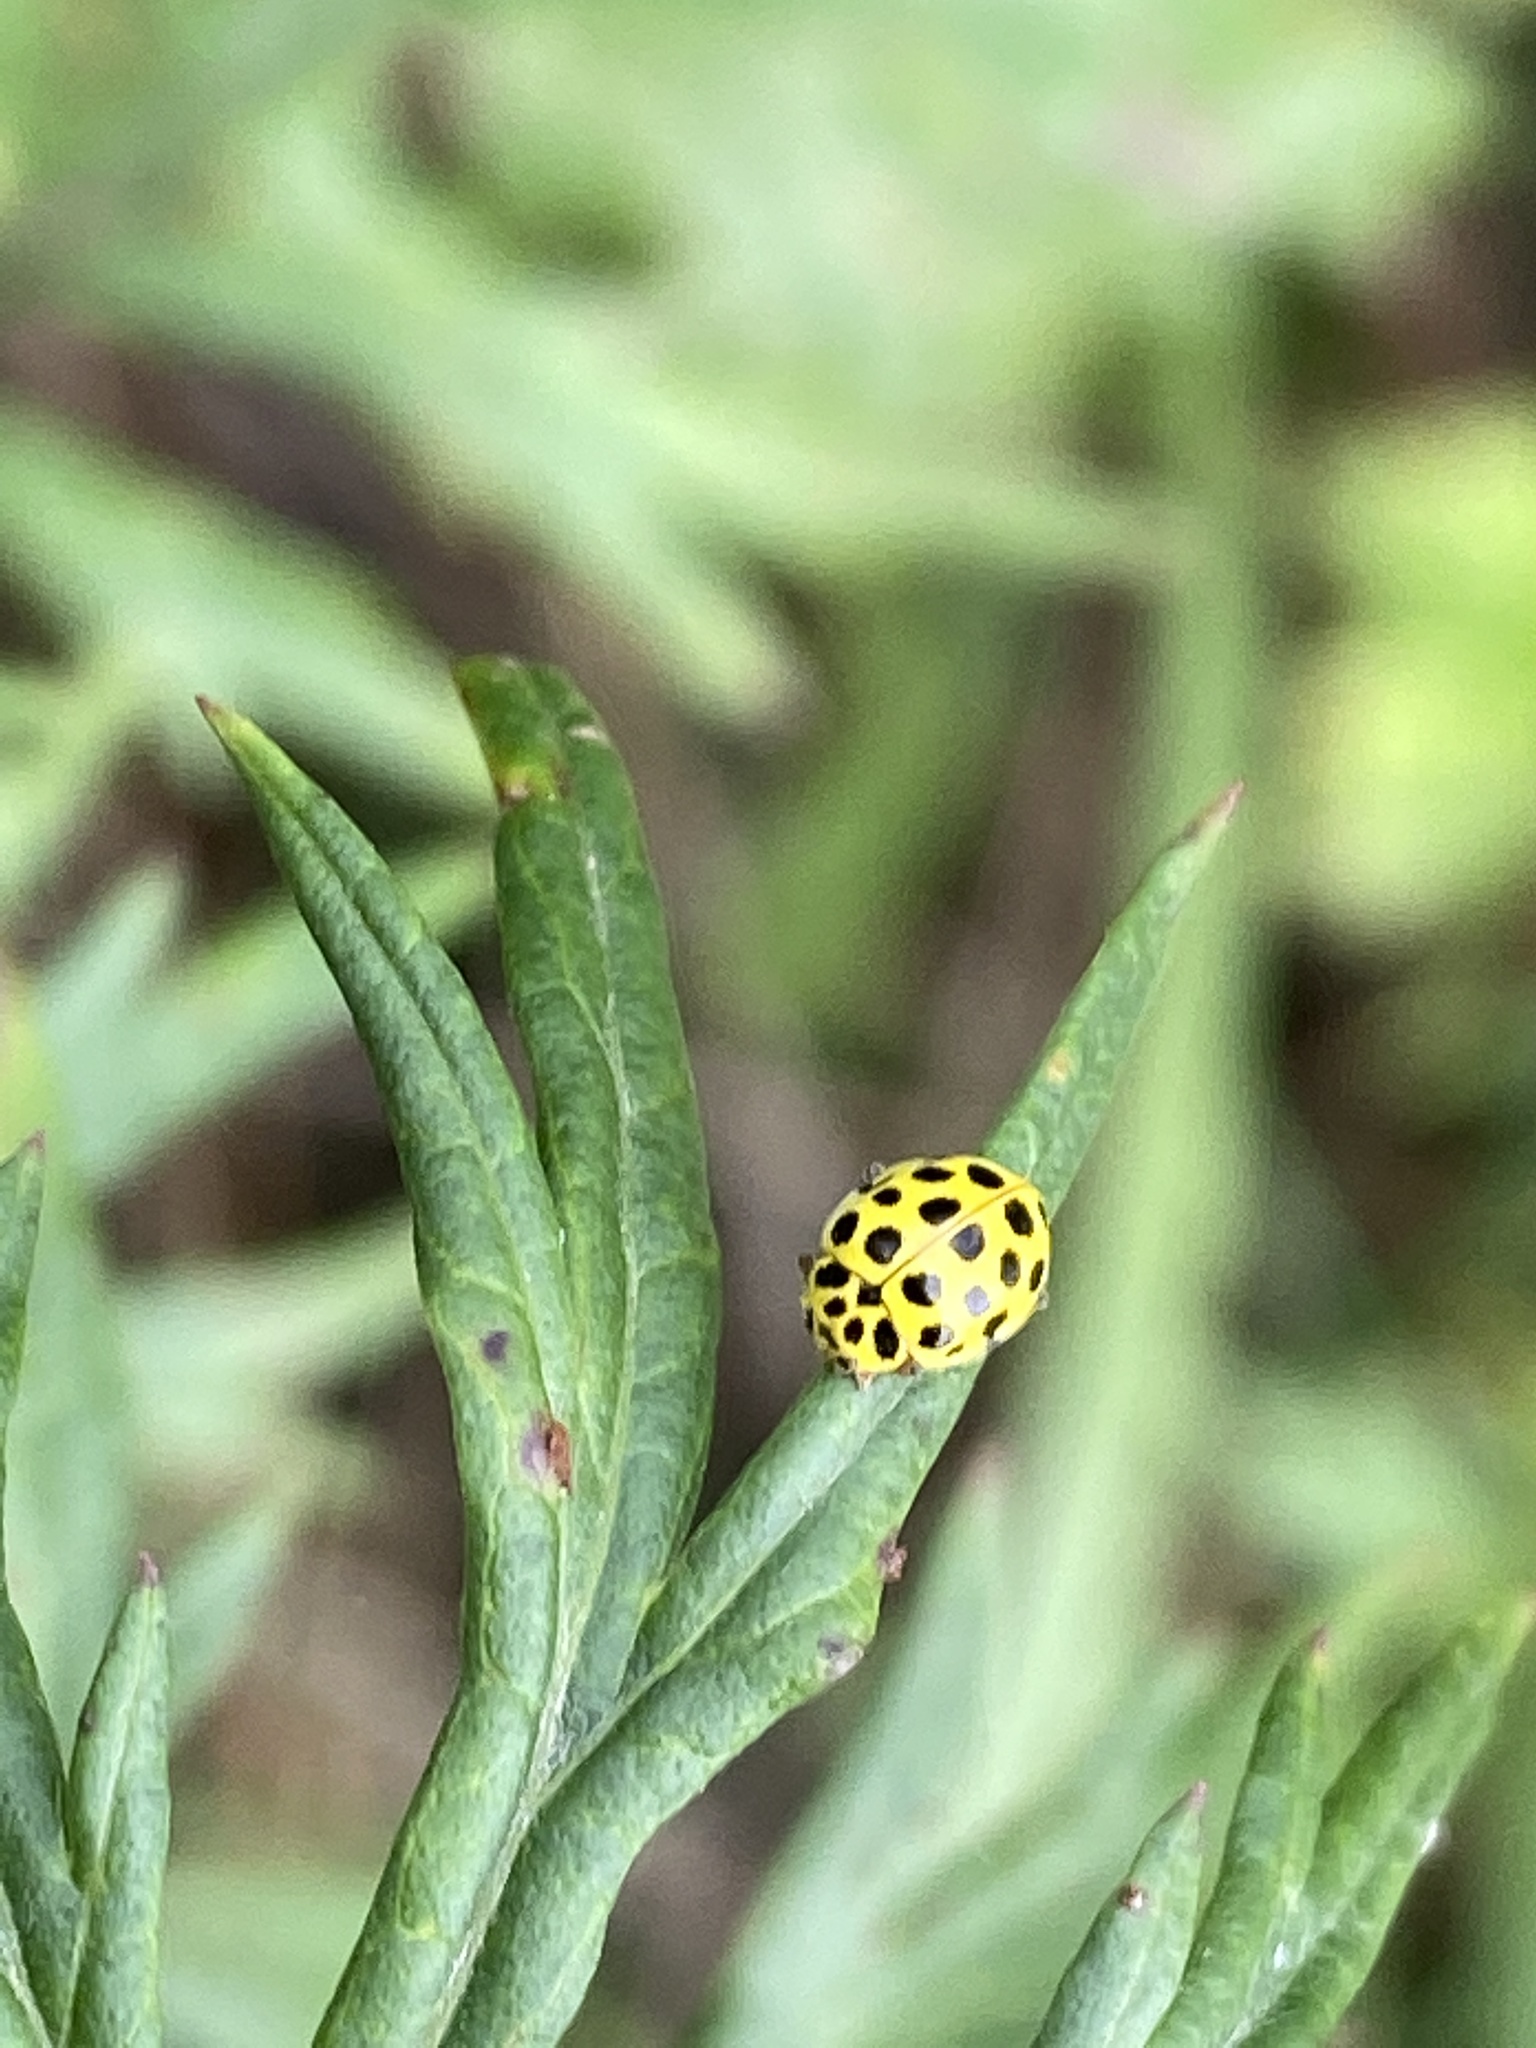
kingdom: Animalia
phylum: Arthropoda
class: Insecta
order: Coleoptera
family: Coccinellidae
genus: Psyllobora
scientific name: Psyllobora vigintiduopunctata
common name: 22-spot ladybird
